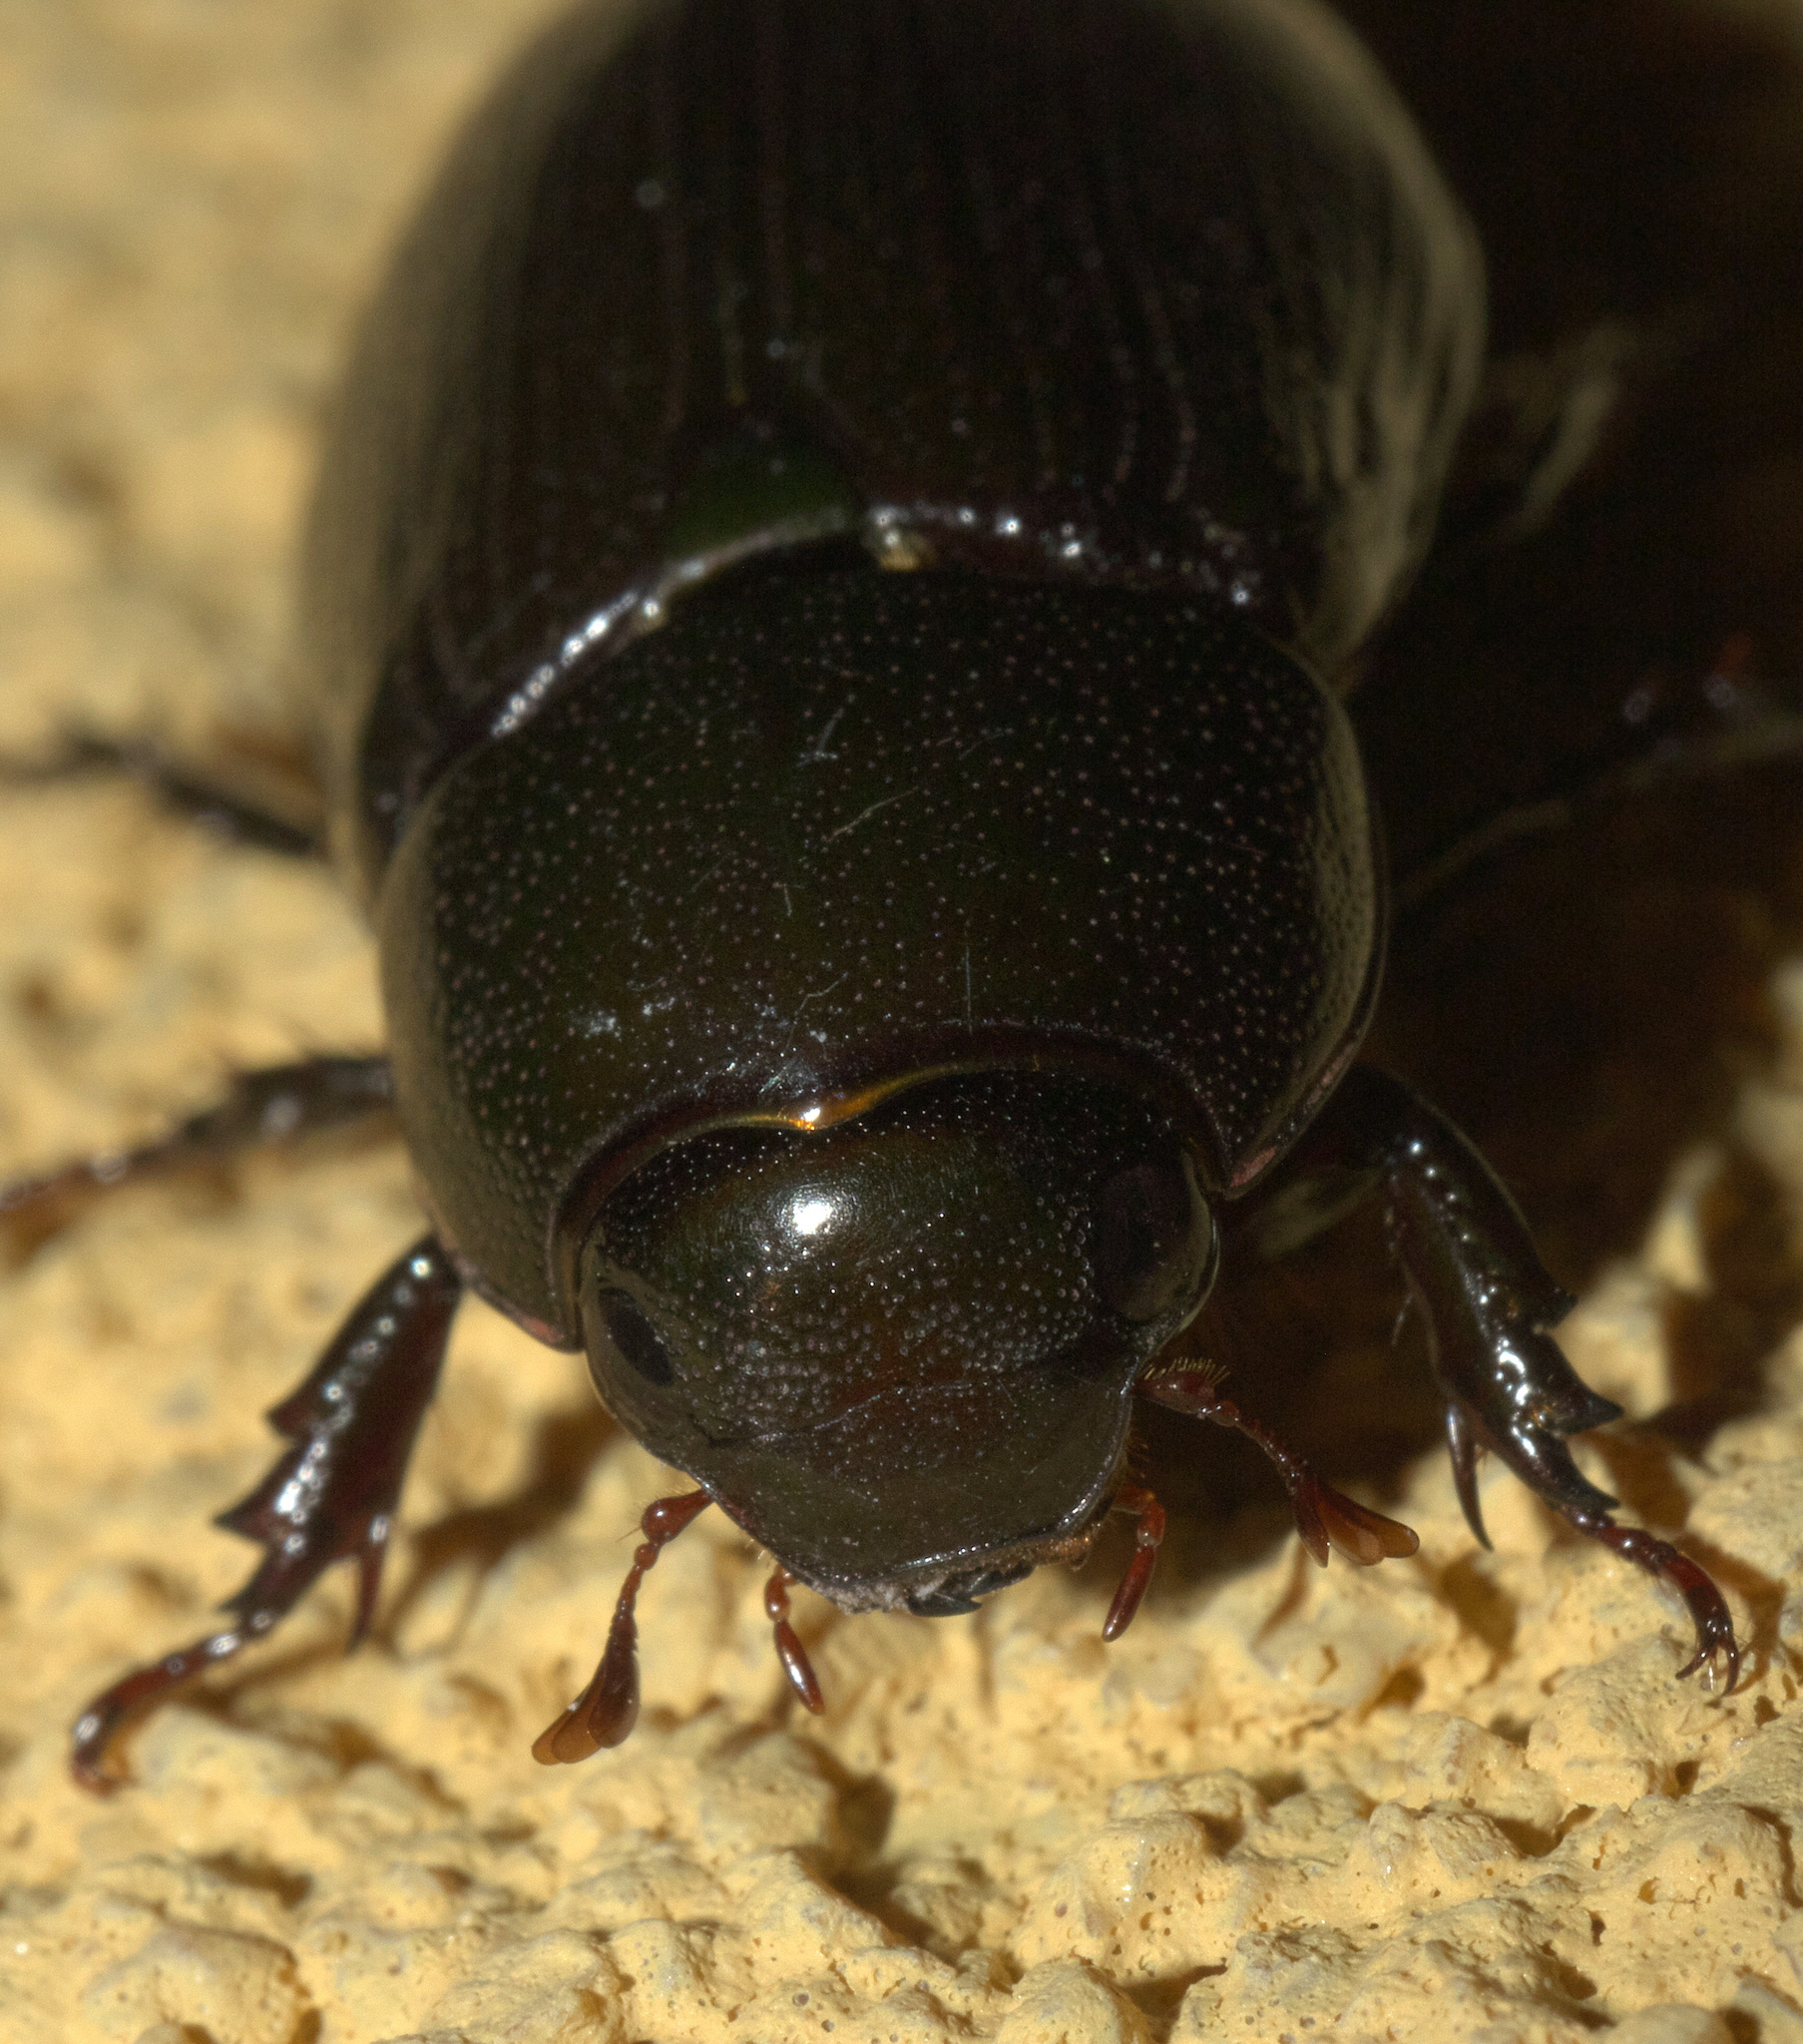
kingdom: Animalia
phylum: Arthropoda
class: Insecta
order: Coleoptera
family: Scarabaeidae
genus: Dyscinetus
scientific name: Dyscinetus morator
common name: Rice beetle
